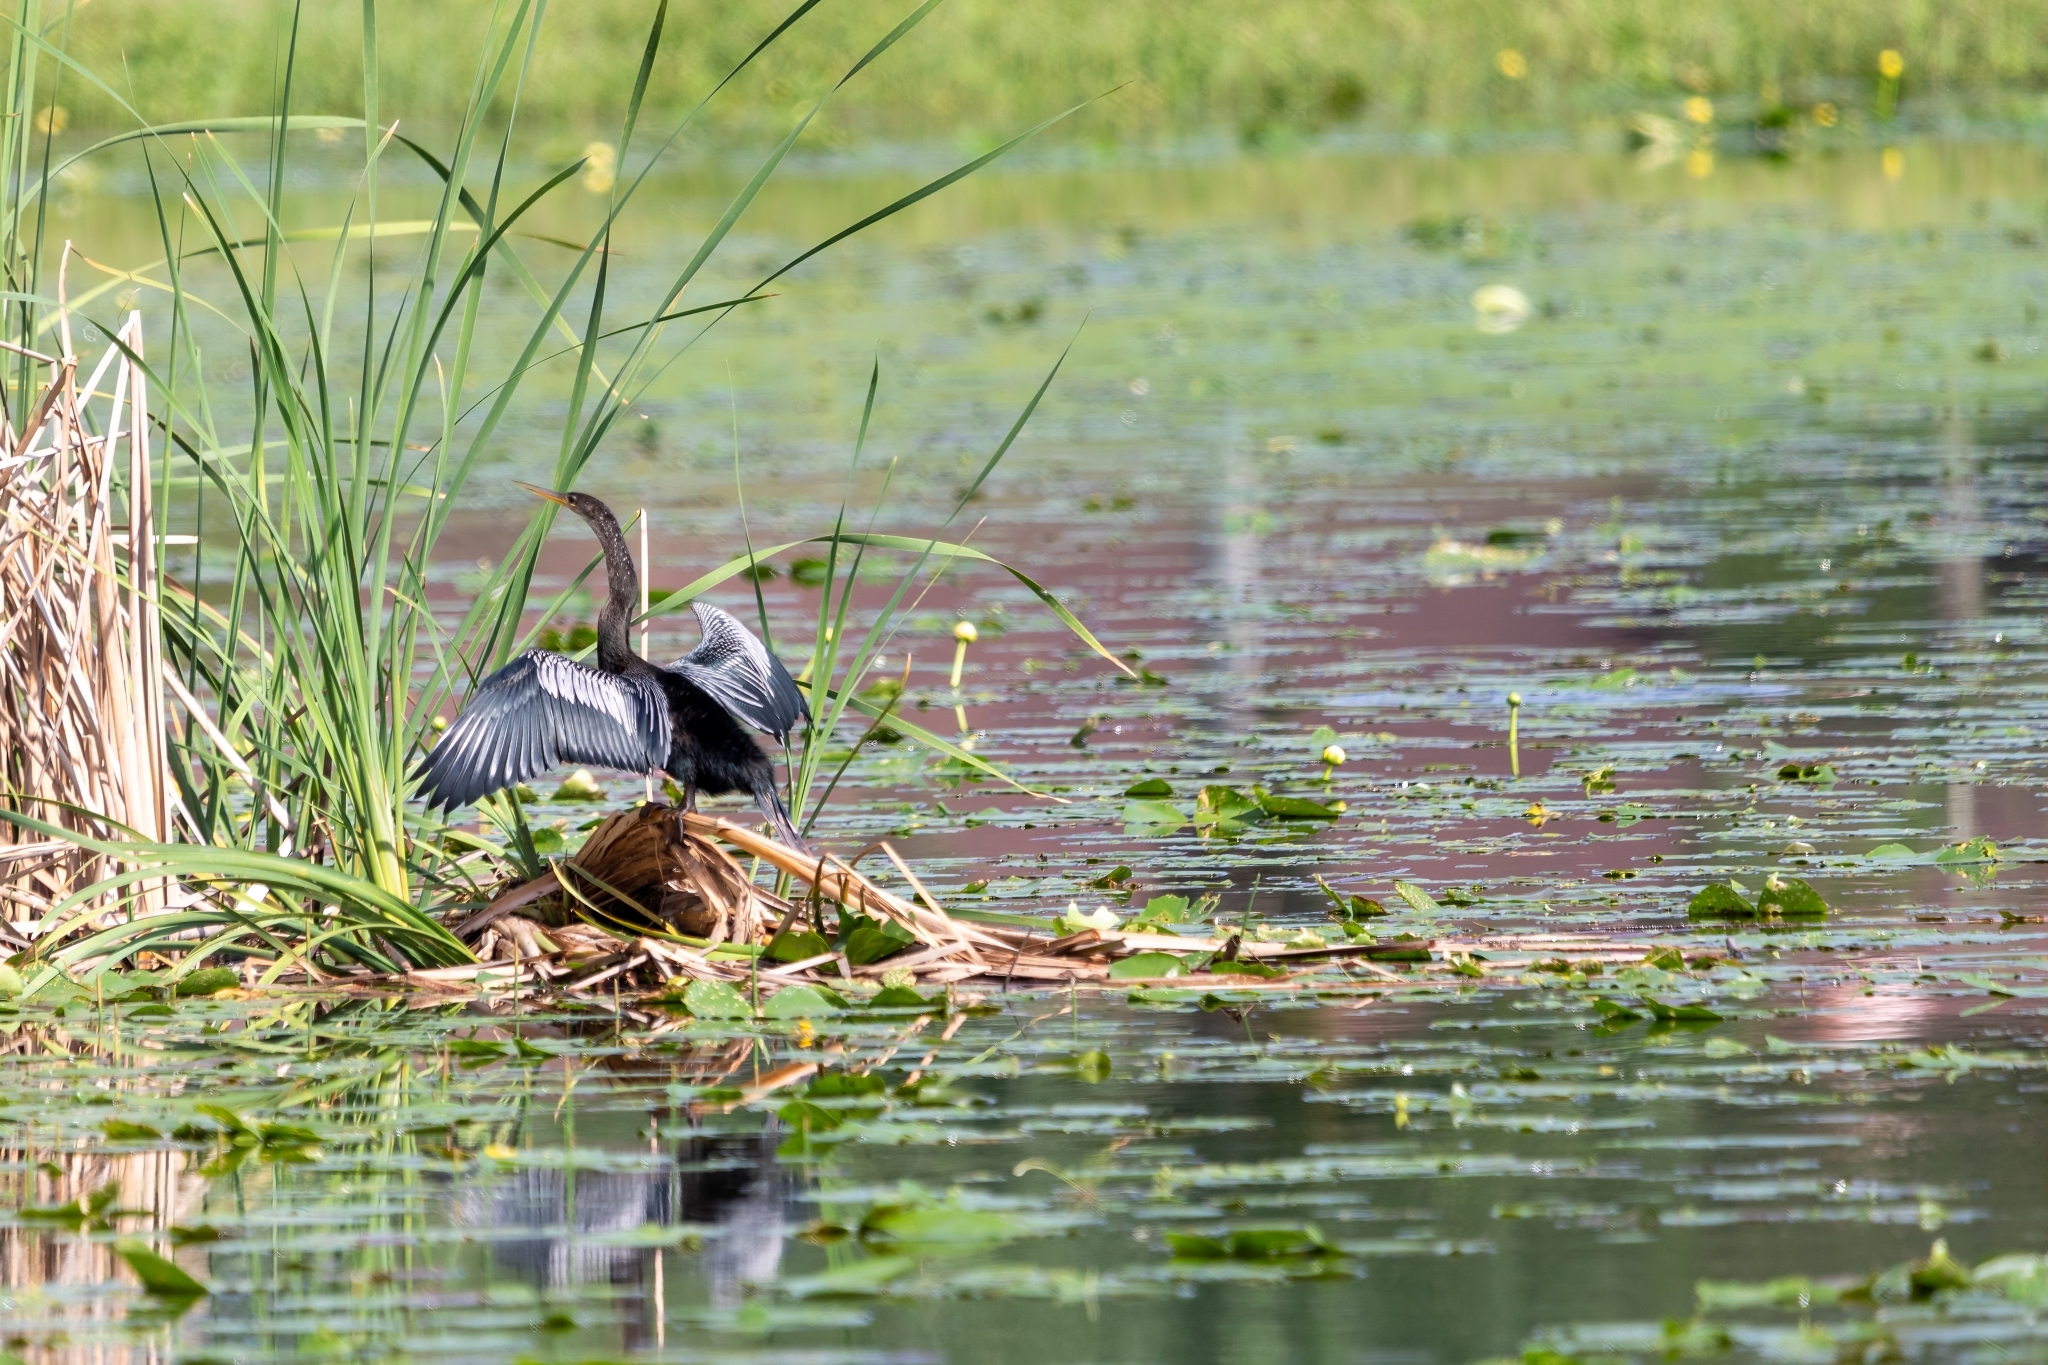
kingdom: Animalia
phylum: Chordata
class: Aves
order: Suliformes
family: Anhingidae
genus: Anhinga
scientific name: Anhinga anhinga
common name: Anhinga
